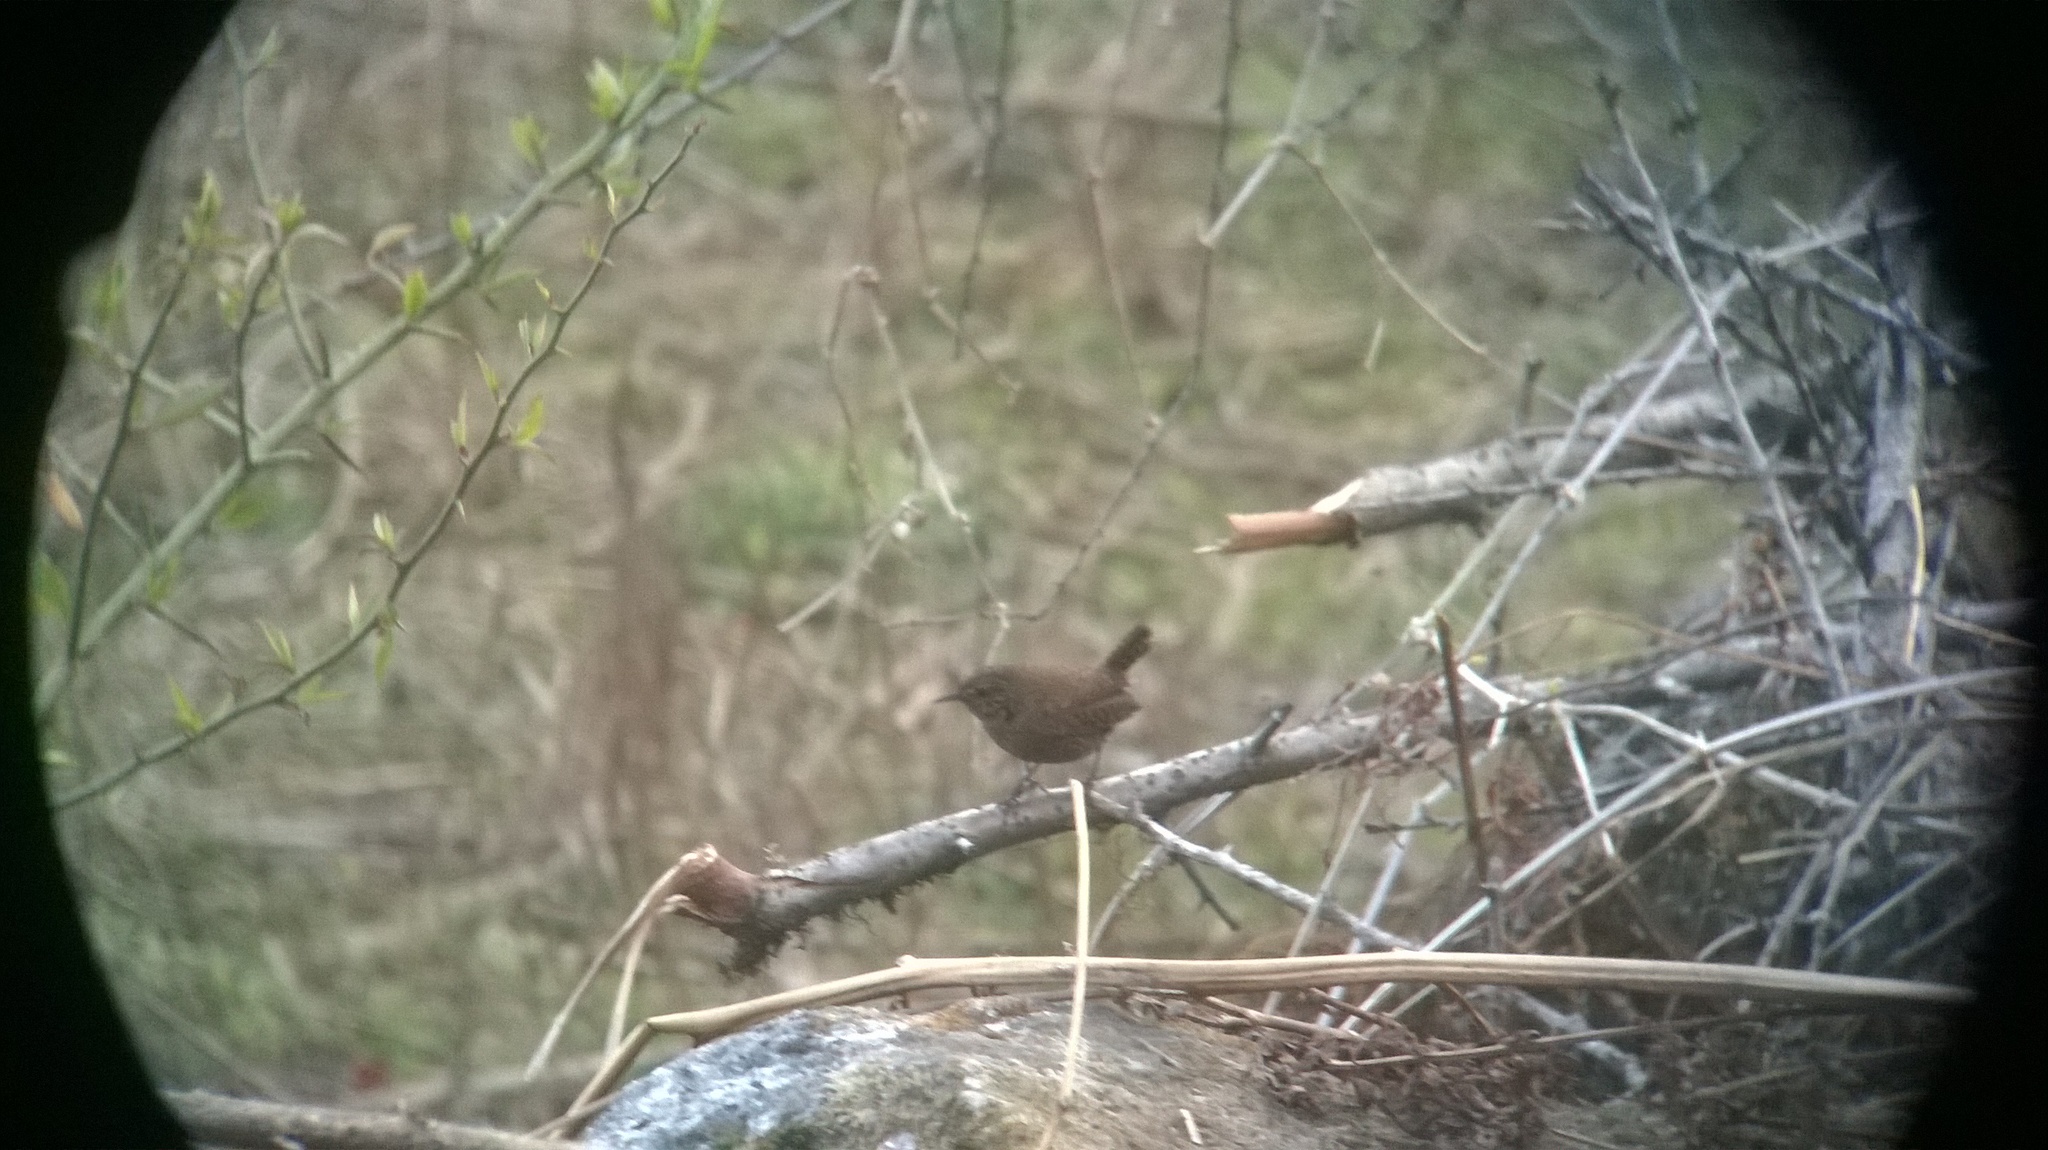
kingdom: Animalia
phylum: Chordata
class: Aves
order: Passeriformes
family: Troglodytidae
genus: Troglodytes
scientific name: Troglodytes troglodytes
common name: Eurasian wren
